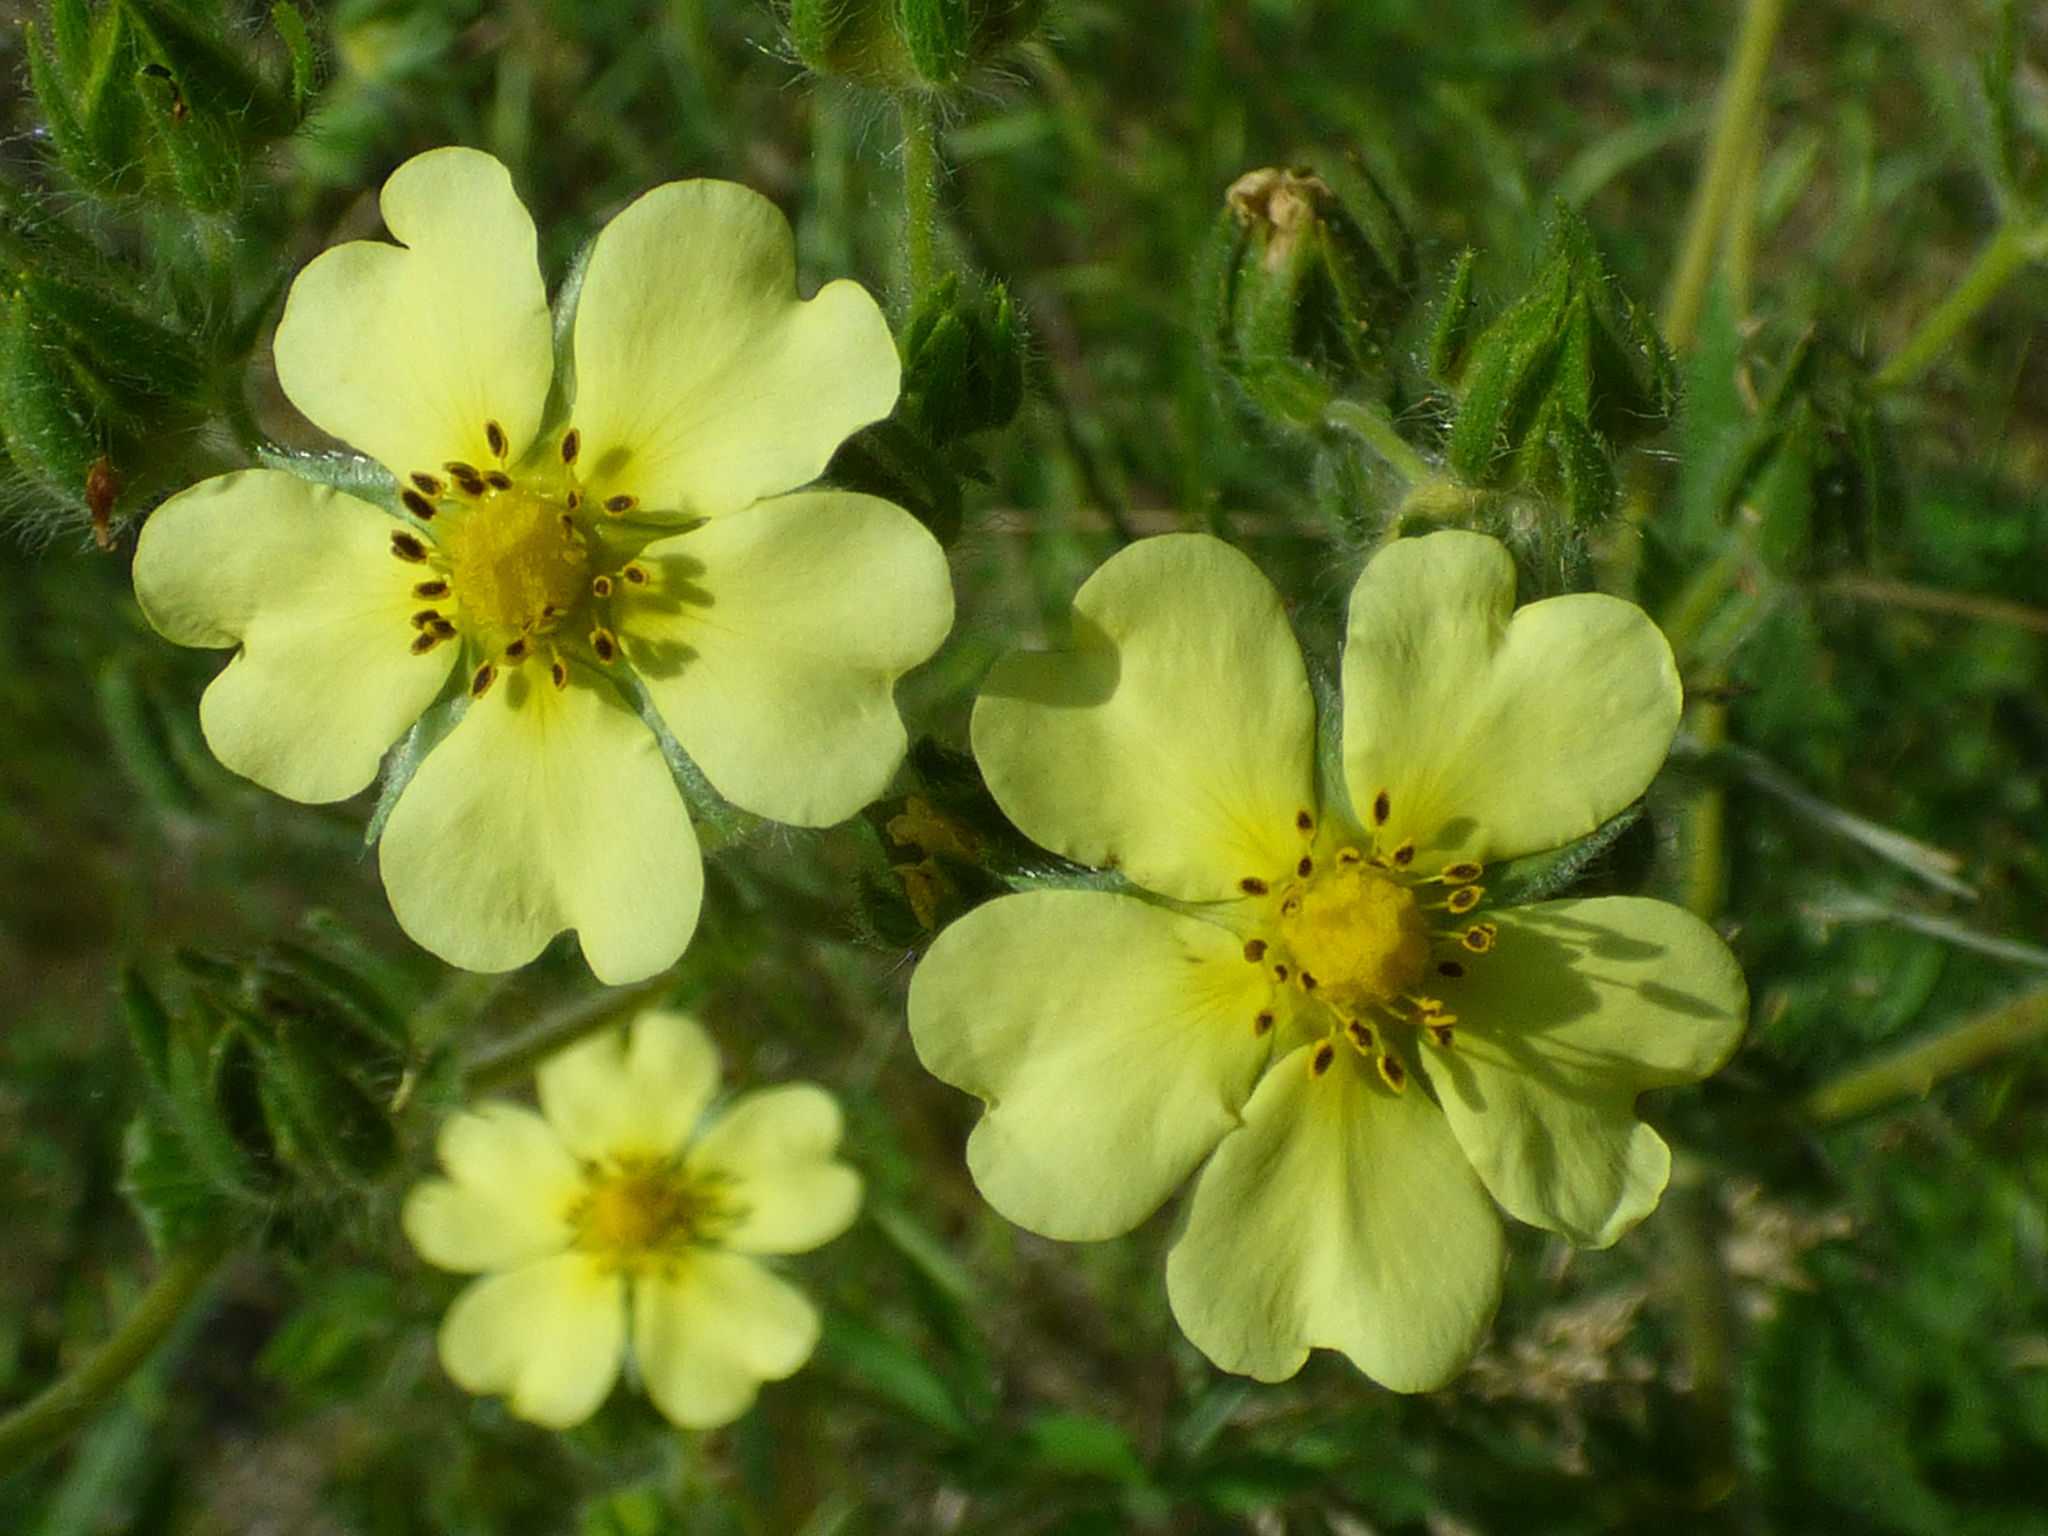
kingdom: Plantae
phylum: Tracheophyta
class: Magnoliopsida
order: Rosales
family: Rosaceae
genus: Potentilla
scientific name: Potentilla recta
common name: Sulphur cinquefoil
